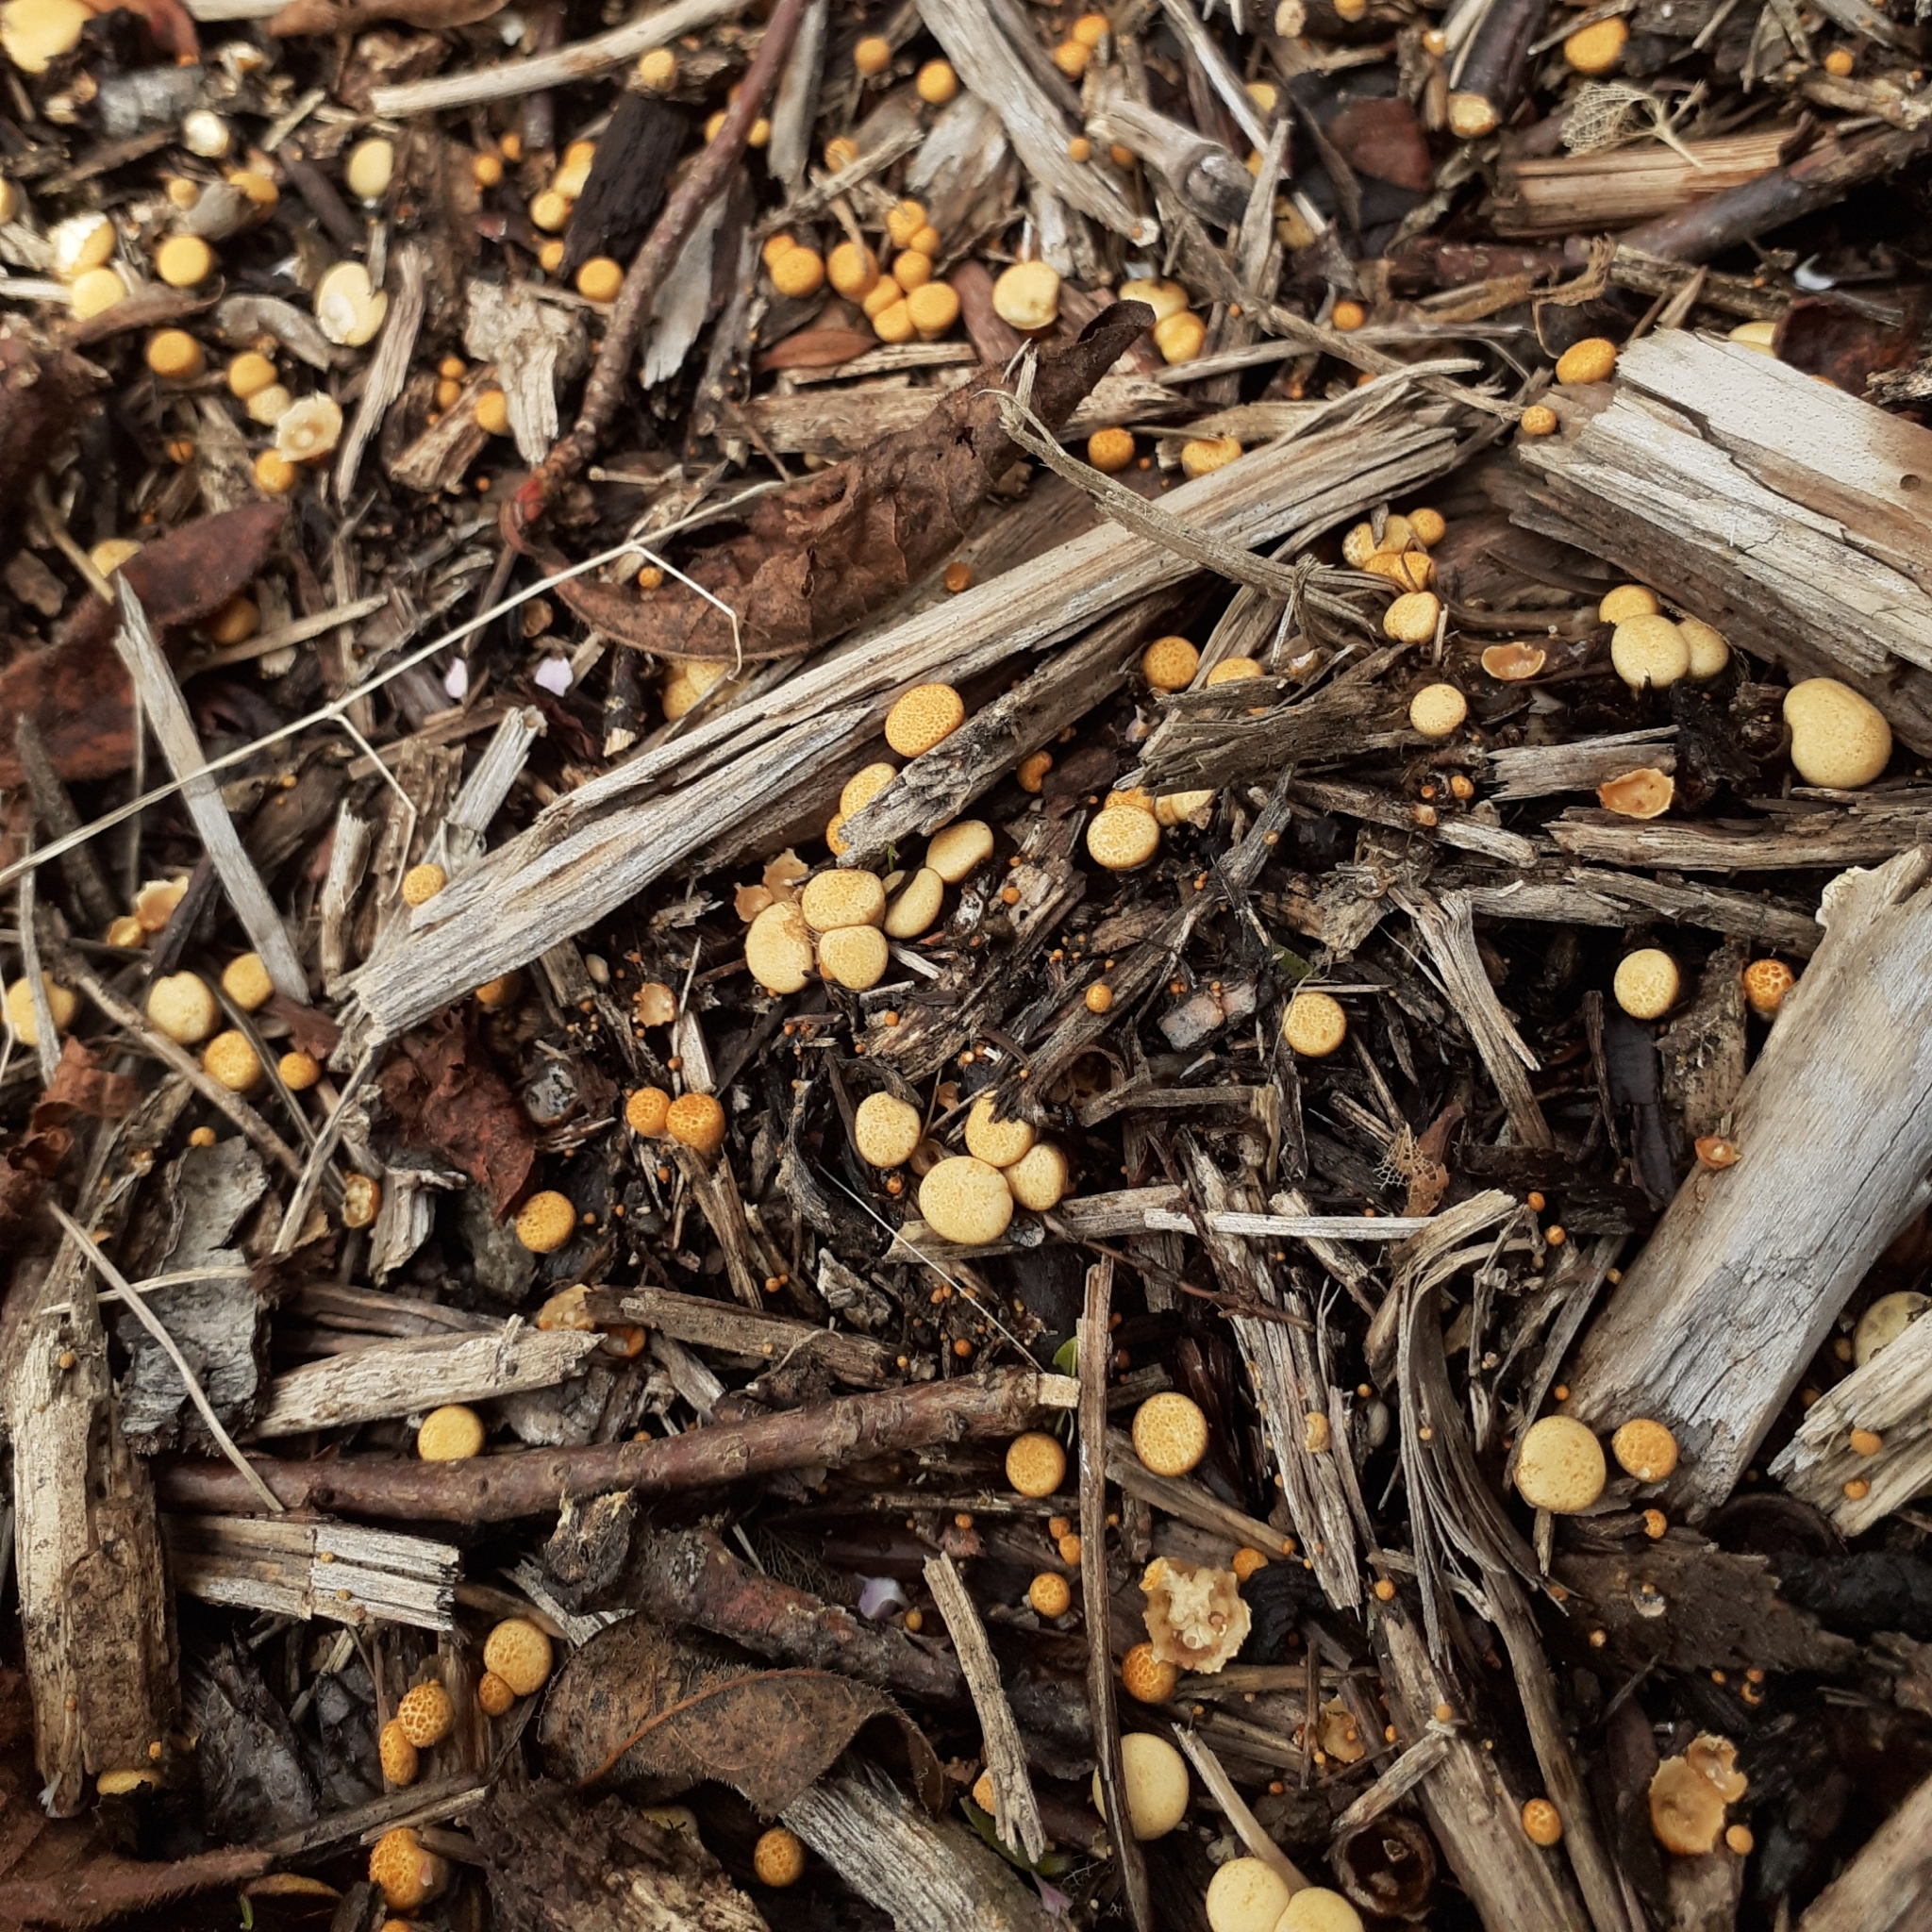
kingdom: Fungi
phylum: Basidiomycota
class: Agaricomycetes
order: Agaricales
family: Nidulariaceae
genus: Crucibulum
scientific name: Crucibulum laeve
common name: Common bird's nest
